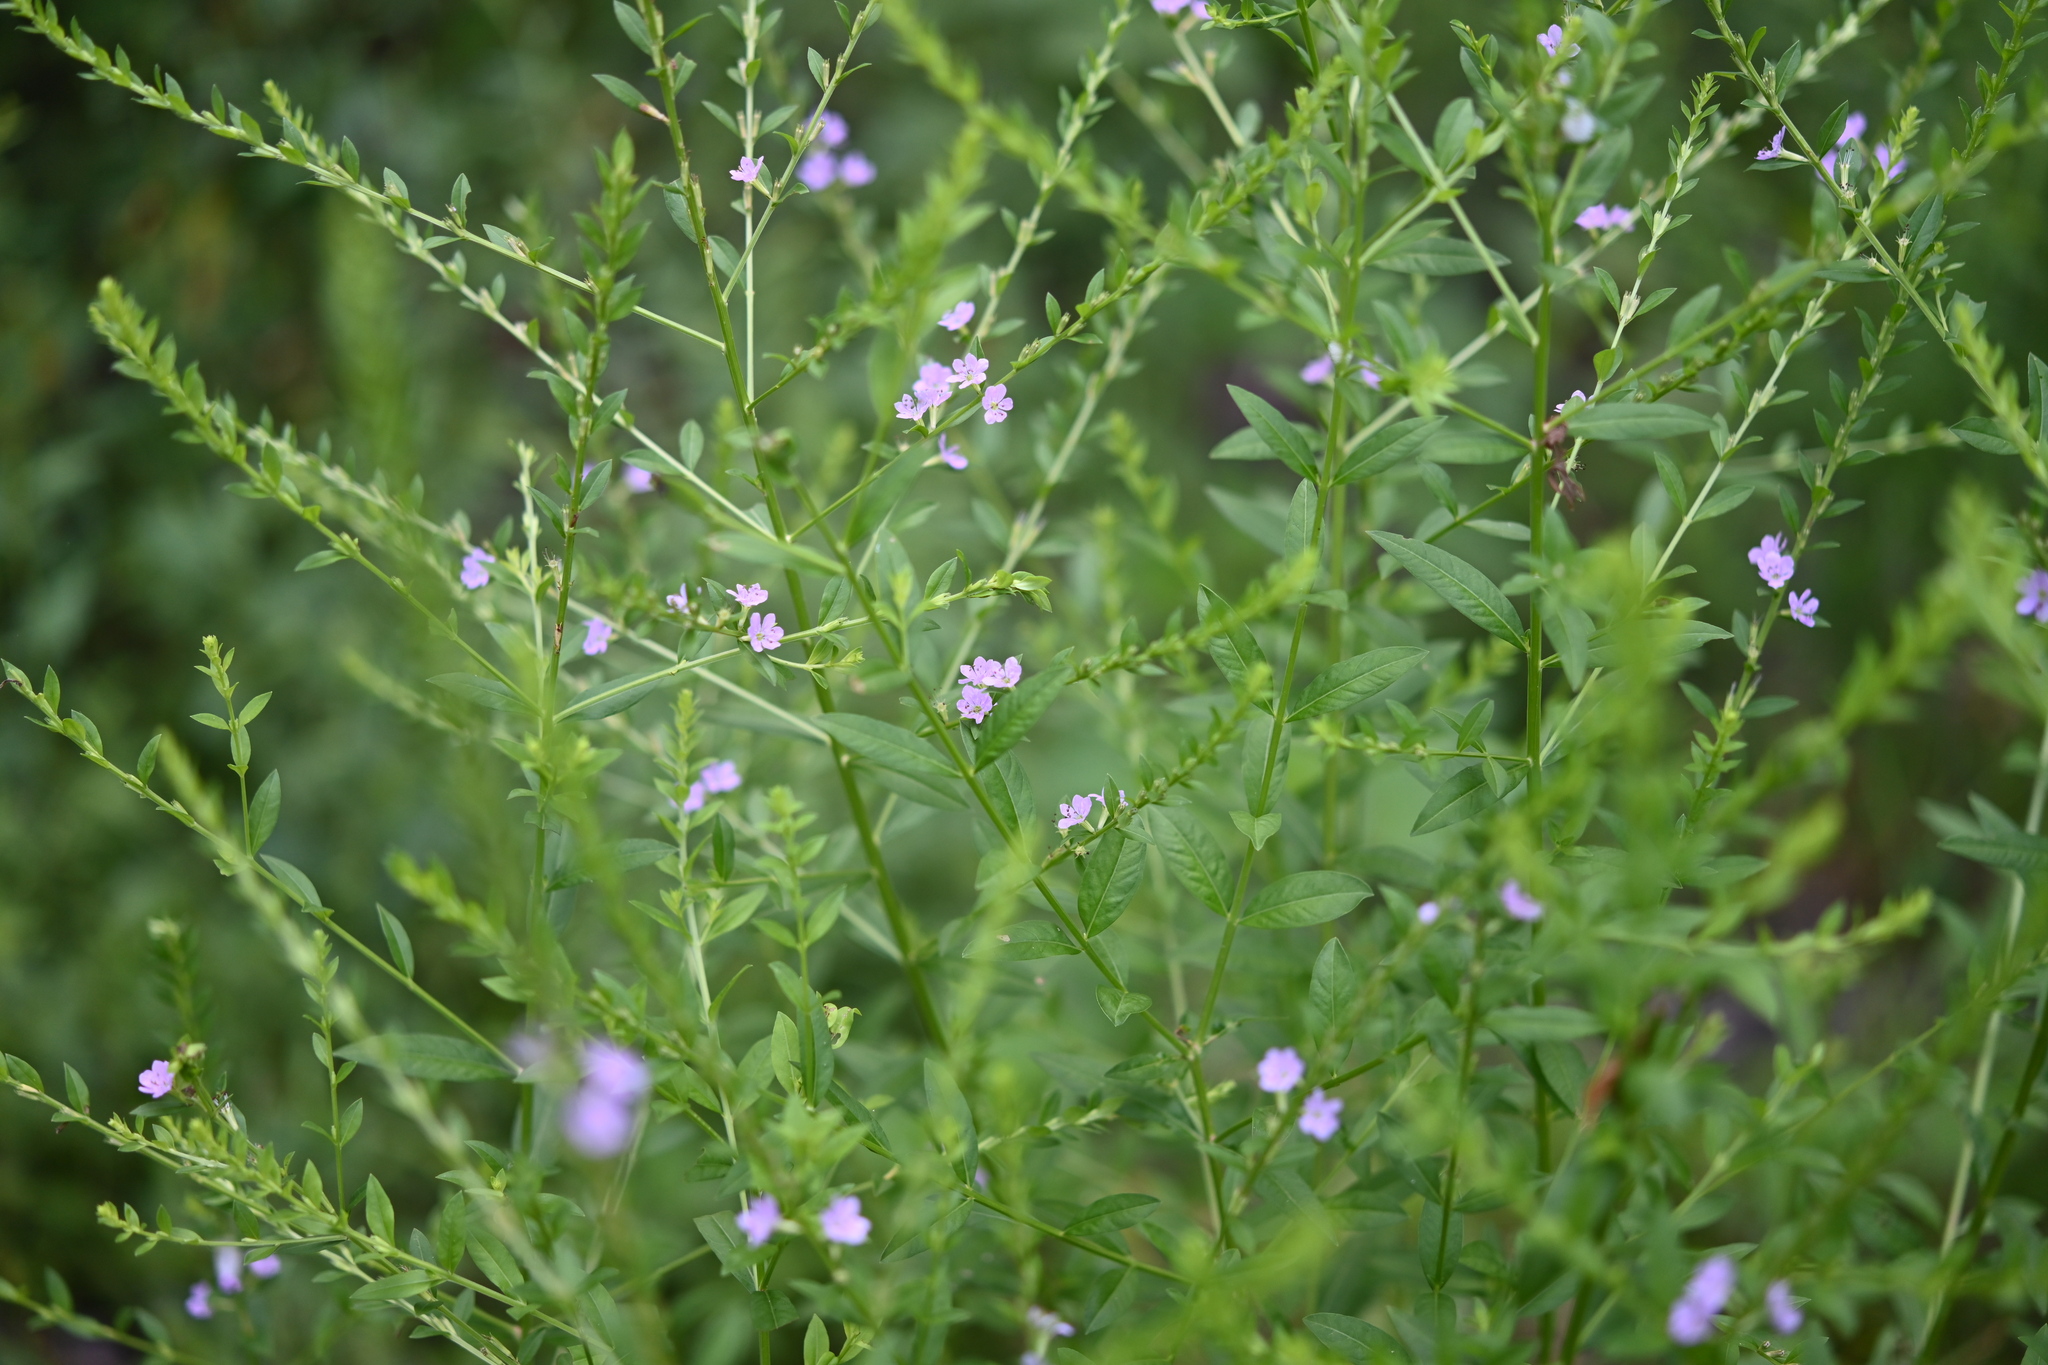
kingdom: Plantae
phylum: Tracheophyta
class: Magnoliopsida
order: Myrtales
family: Lythraceae
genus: Lythrum
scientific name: Lythrum alatum
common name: Winged loosestrife
